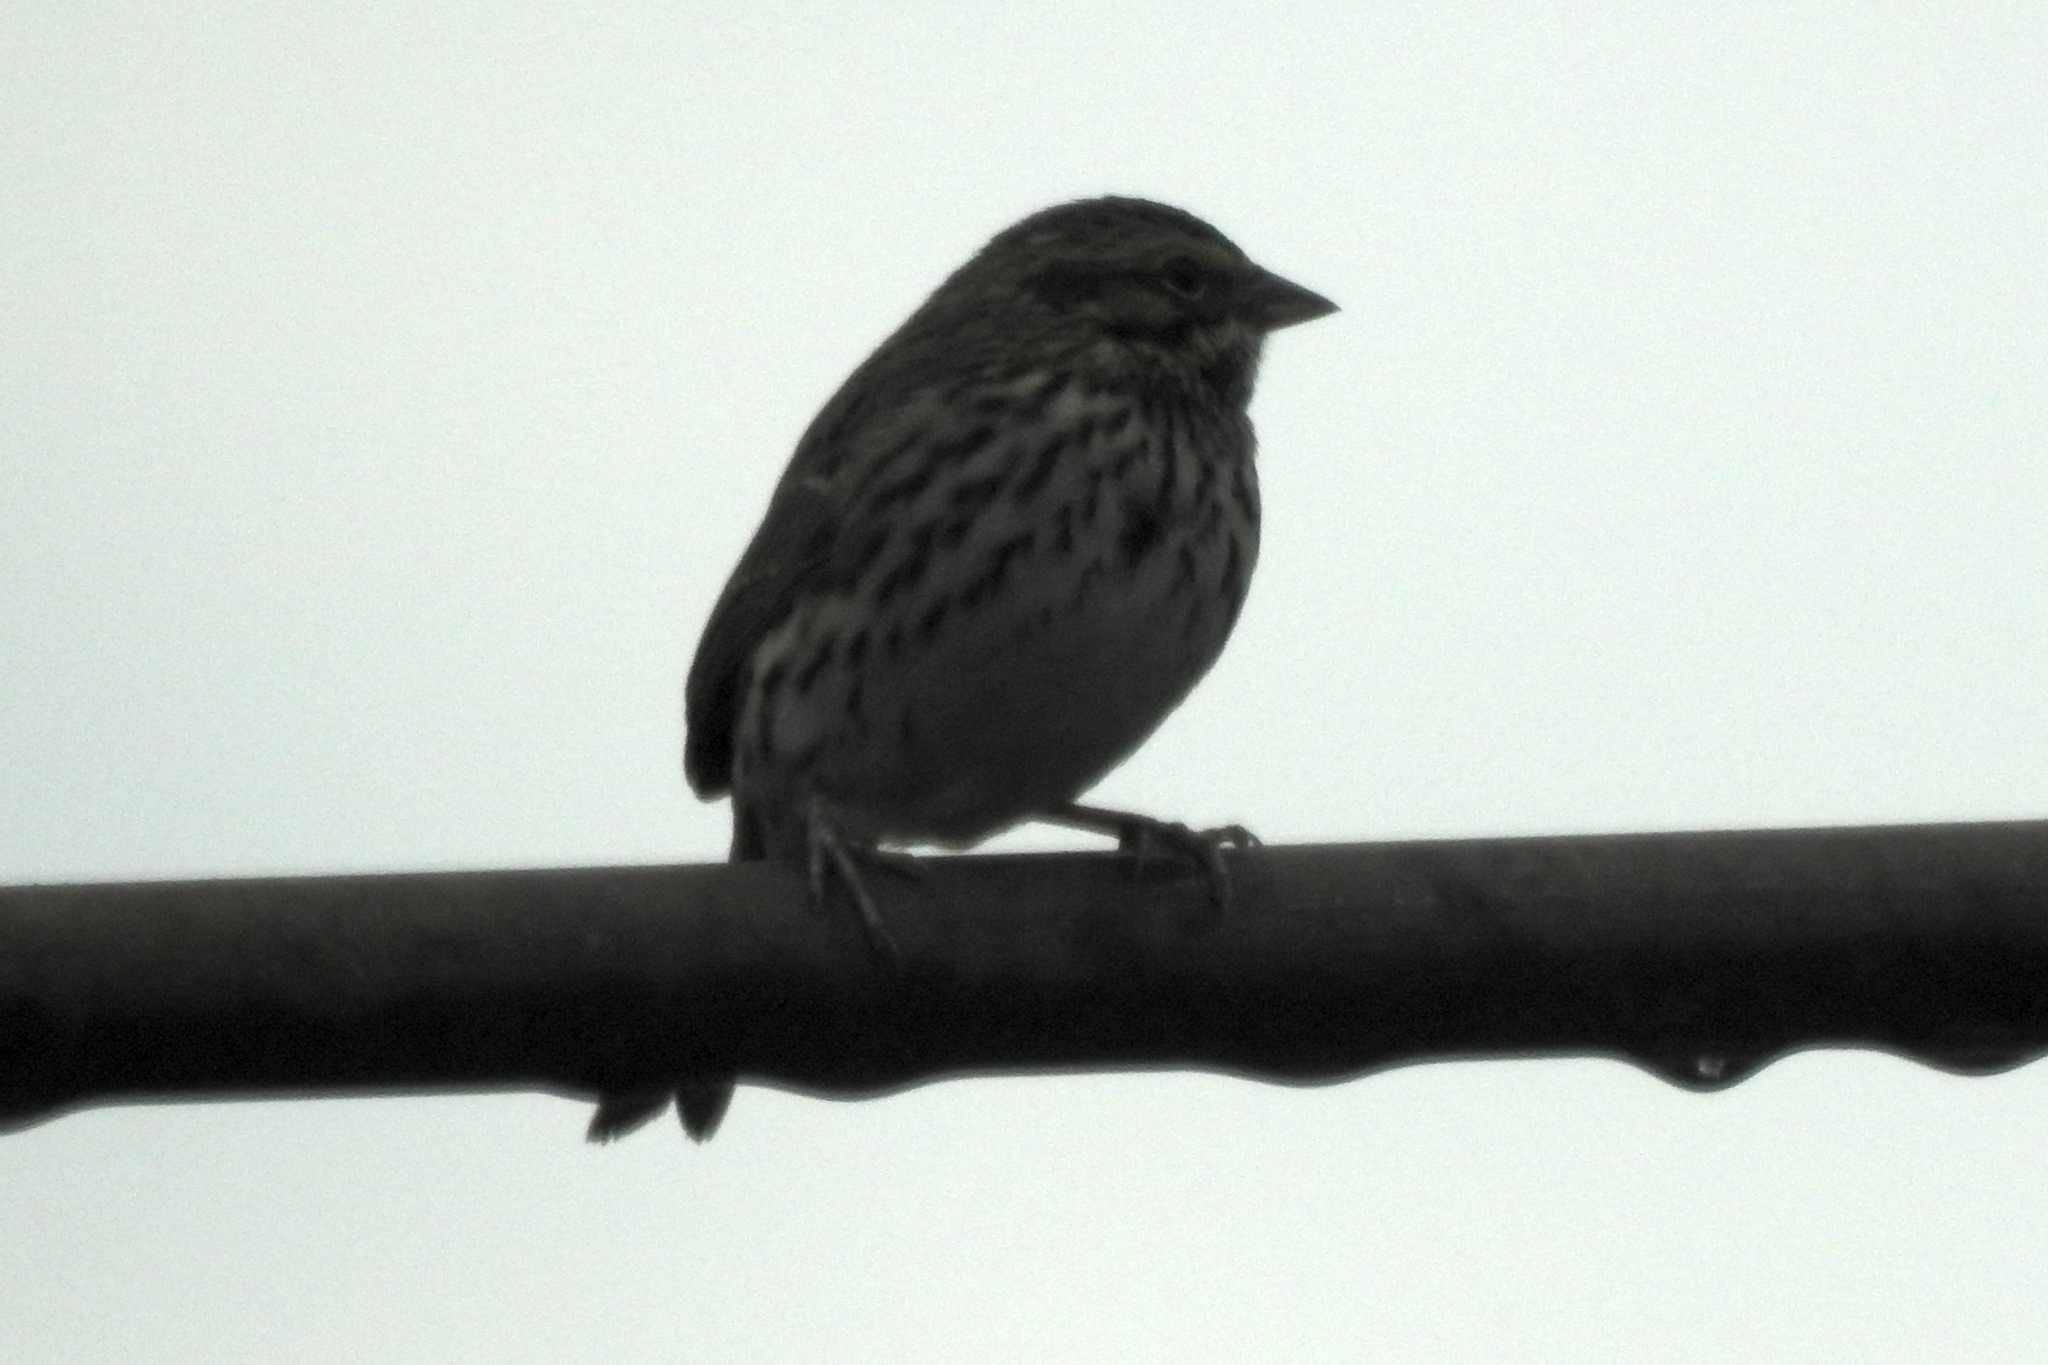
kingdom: Animalia
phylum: Chordata
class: Aves
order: Passeriformes
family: Passerellidae
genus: Passerculus
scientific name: Passerculus sandwichensis
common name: Savannah sparrow
